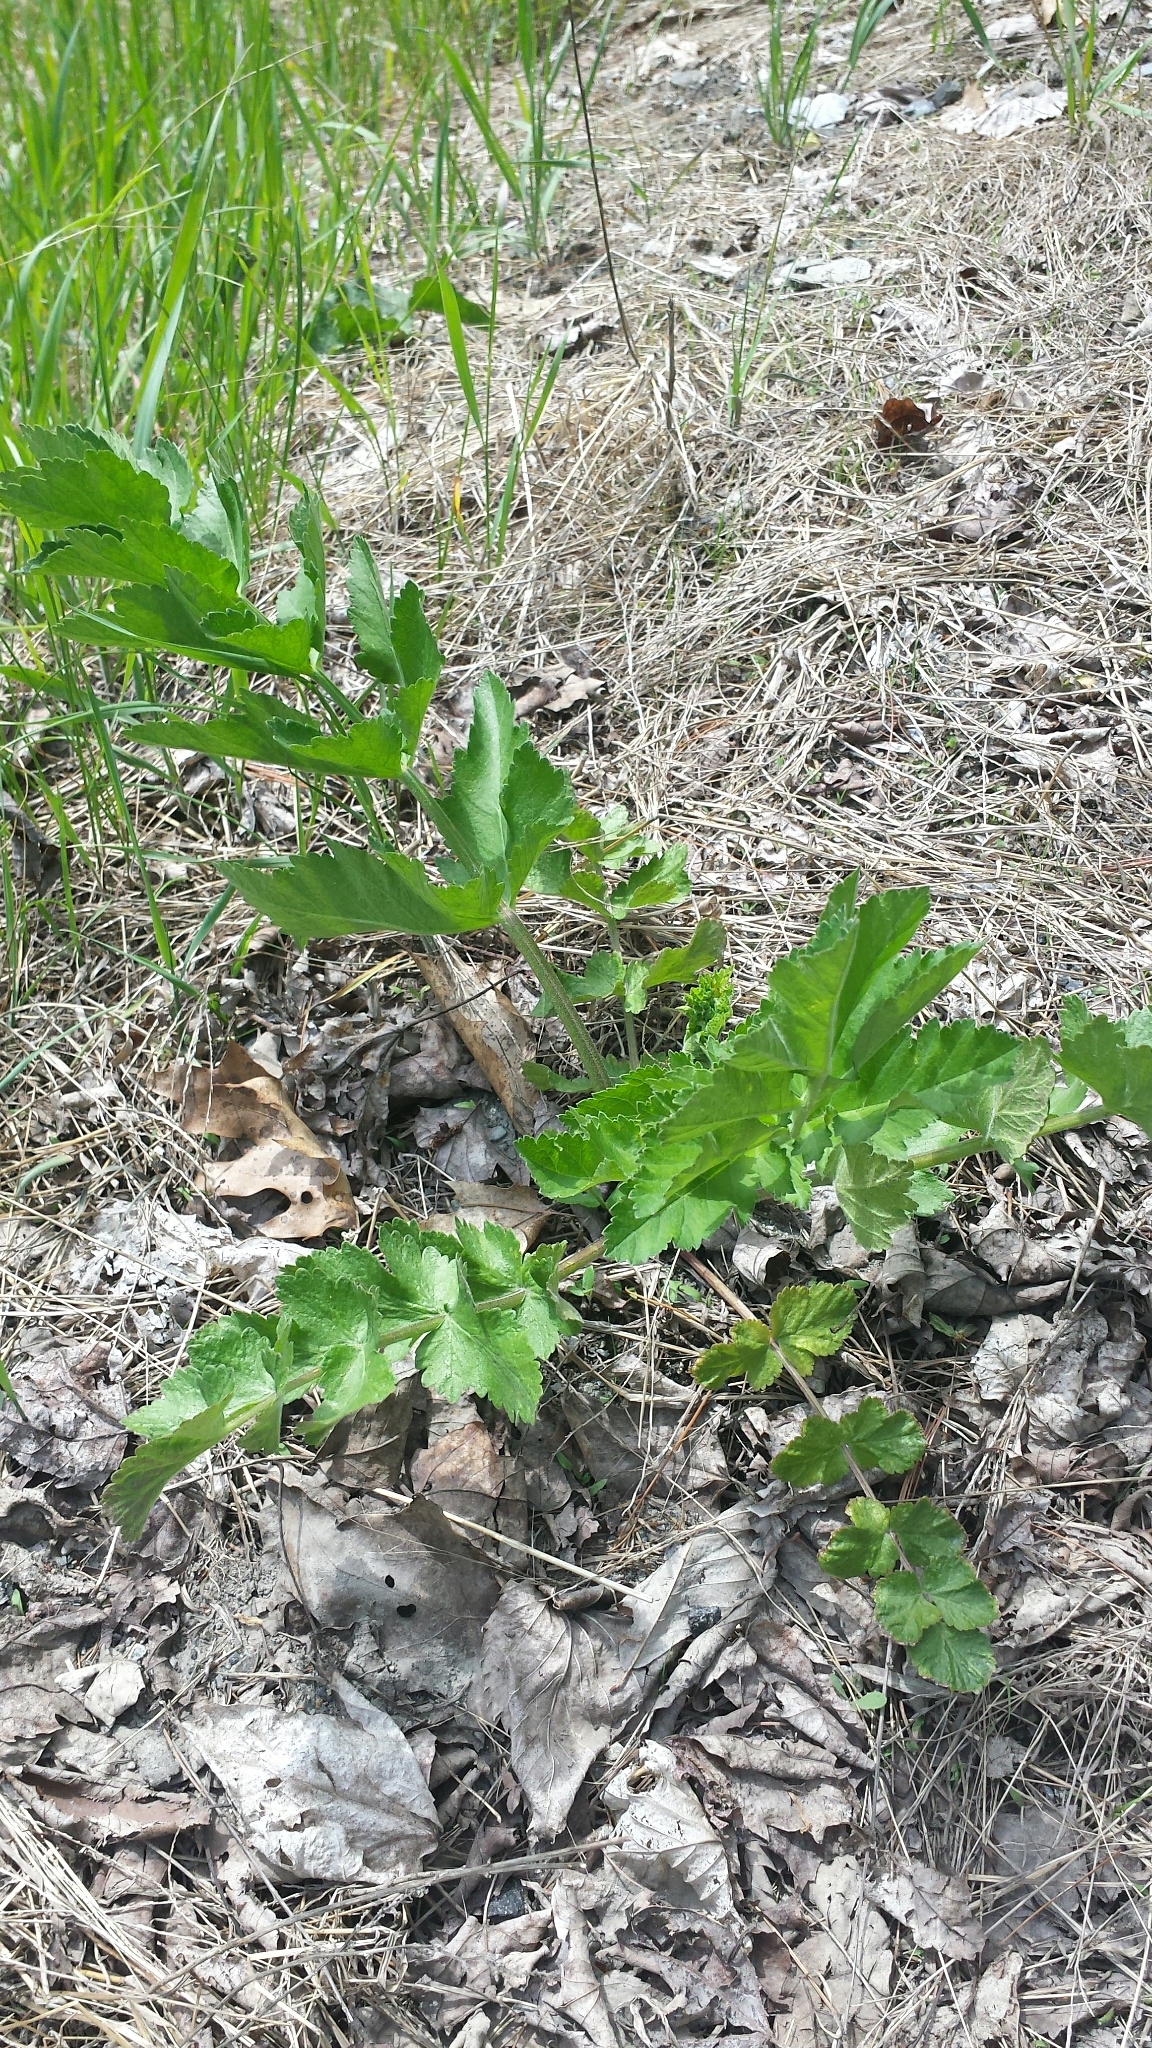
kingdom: Plantae
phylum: Tracheophyta
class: Magnoliopsida
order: Apiales
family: Apiaceae
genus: Pastinaca
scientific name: Pastinaca sativa
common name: Wild parsnip
